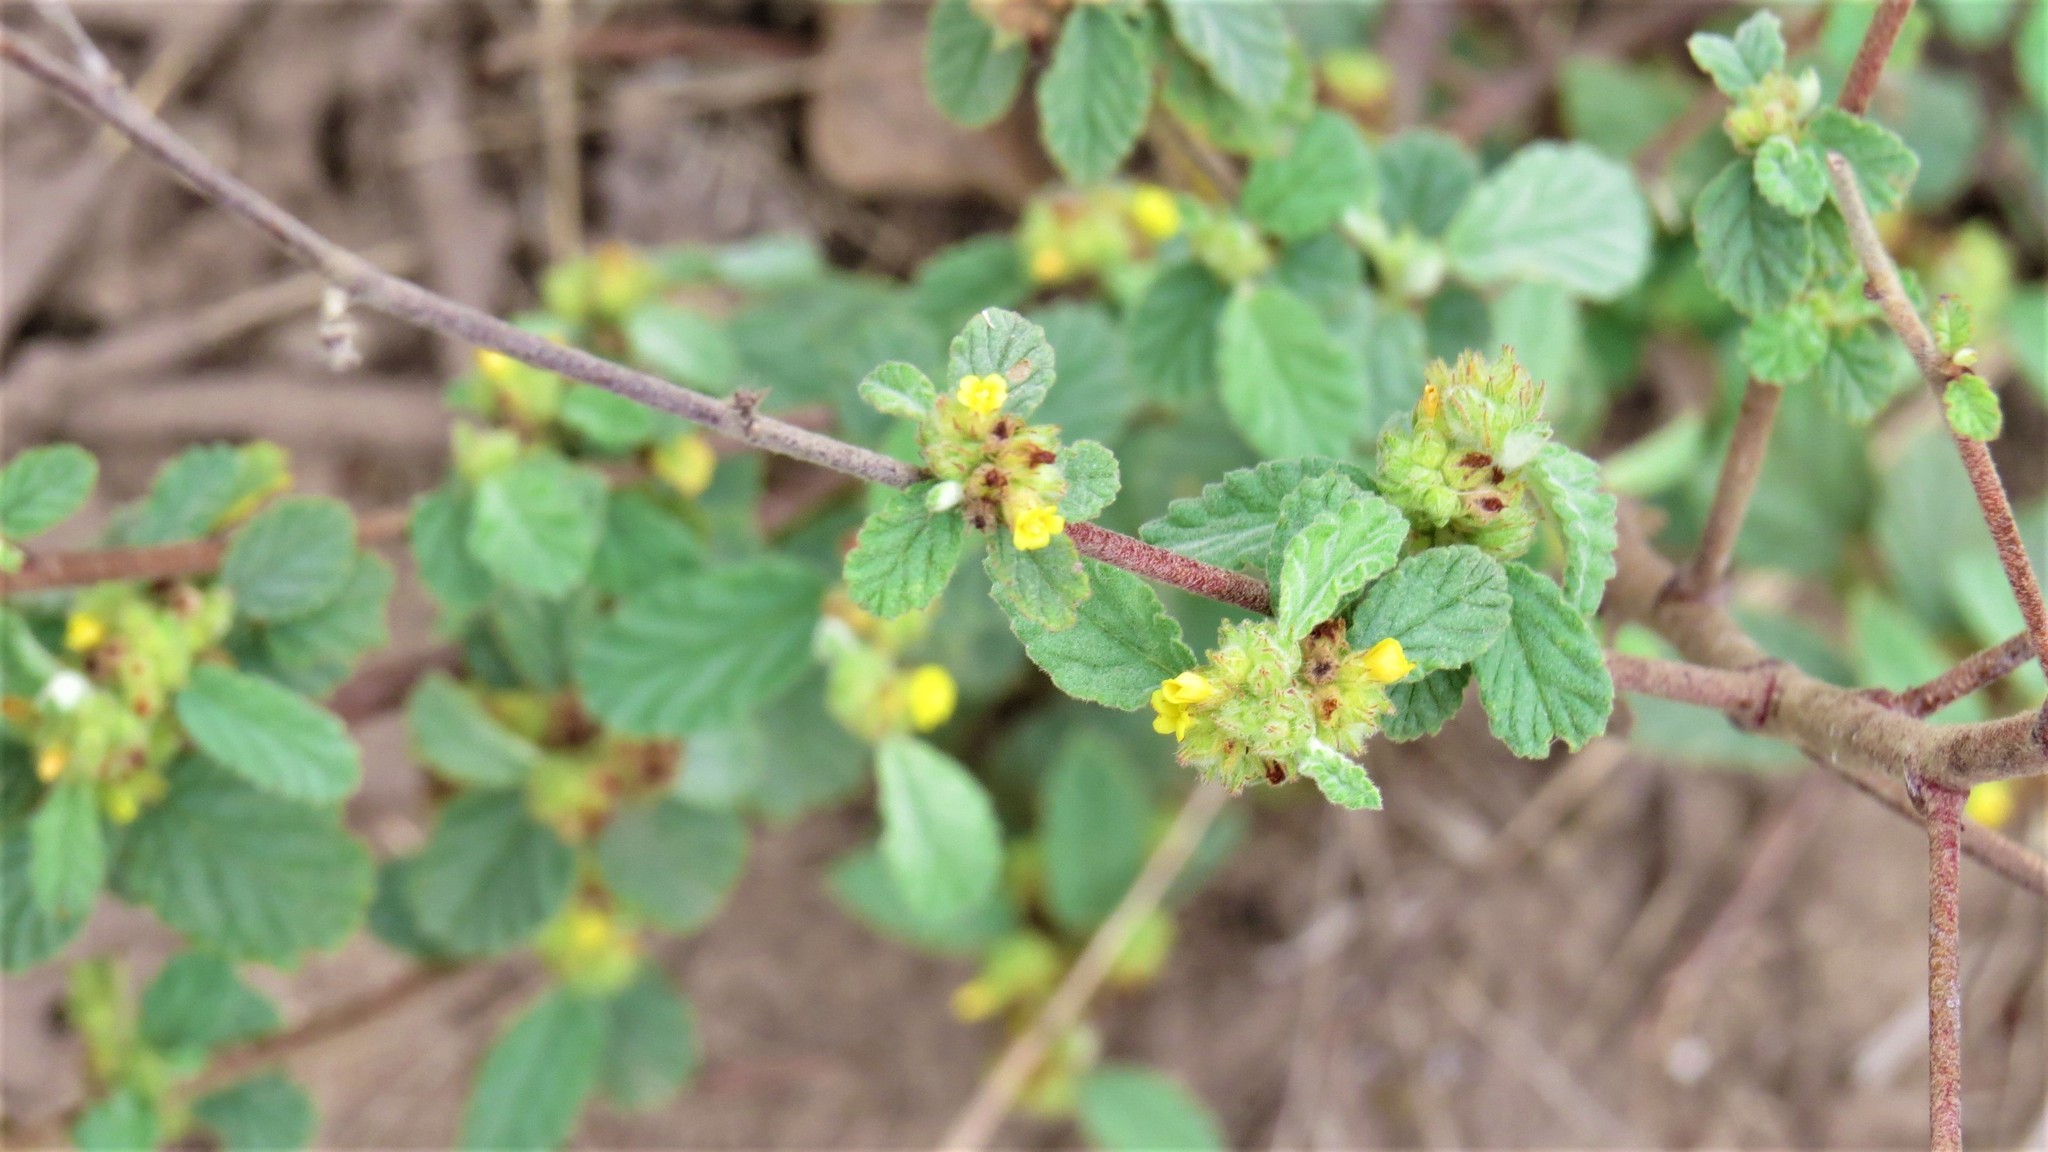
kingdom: Plantae
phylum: Tracheophyta
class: Magnoliopsida
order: Malvales
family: Malvaceae
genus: Waltheria
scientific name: Waltheria indica
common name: Leather-coat
